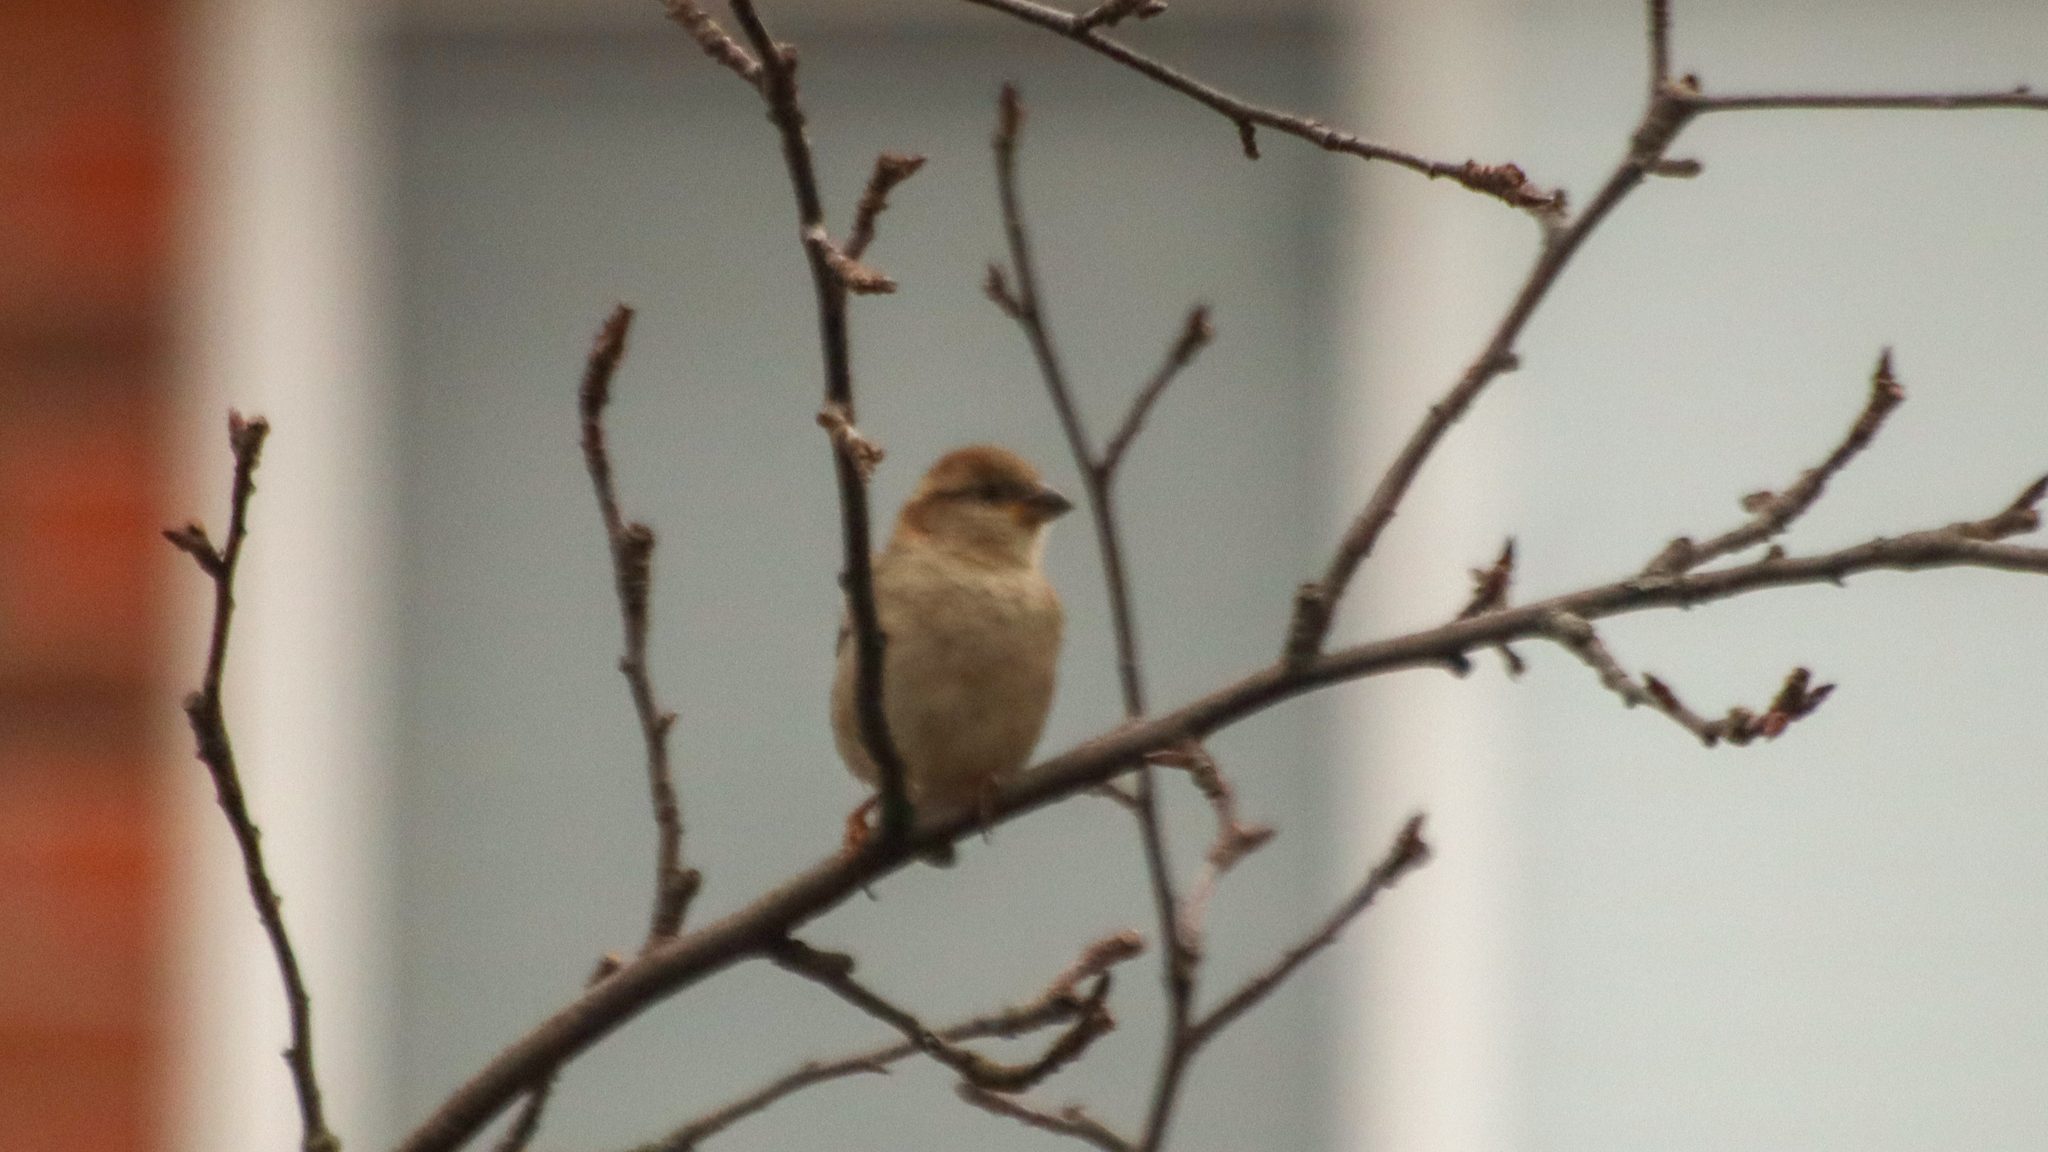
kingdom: Animalia
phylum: Chordata
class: Aves
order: Passeriformes
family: Passeridae
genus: Passer
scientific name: Passer domesticus
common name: House sparrow
